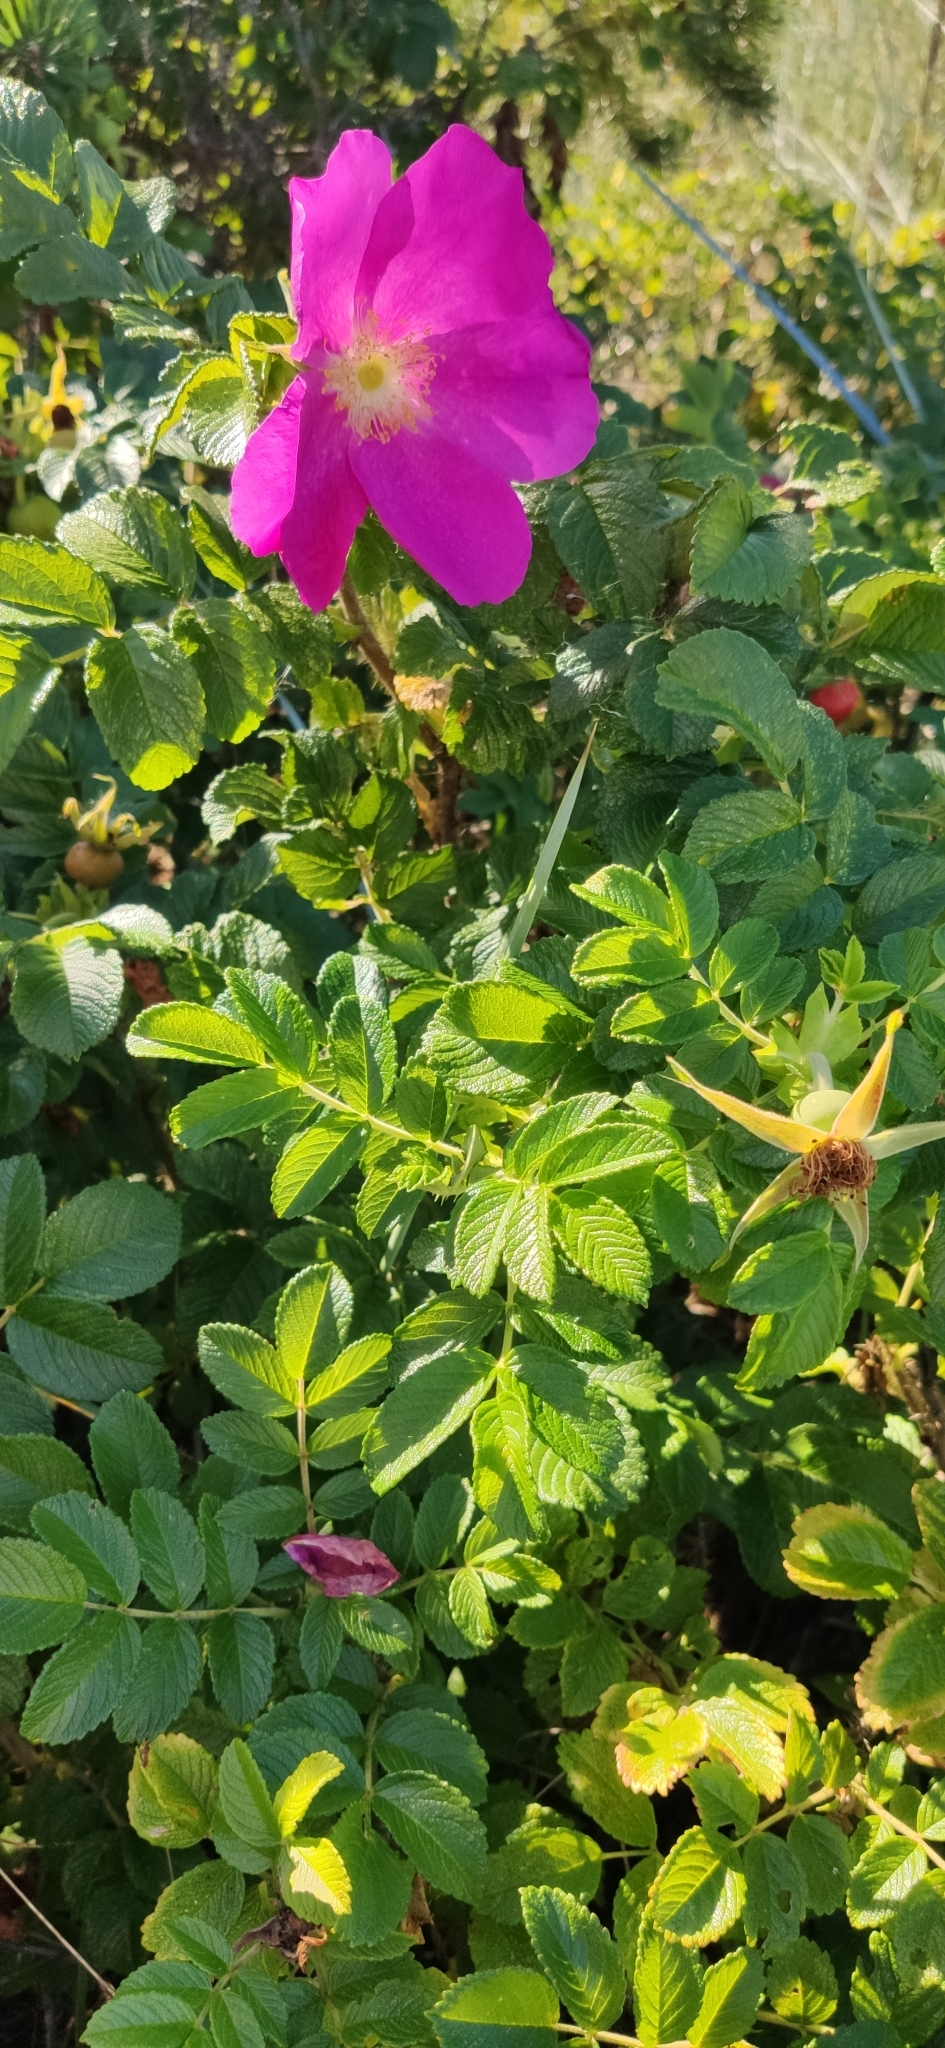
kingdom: Plantae
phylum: Tracheophyta
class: Magnoliopsida
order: Rosales
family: Rosaceae
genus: Rosa
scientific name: Rosa rugosa
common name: Japanese rose
